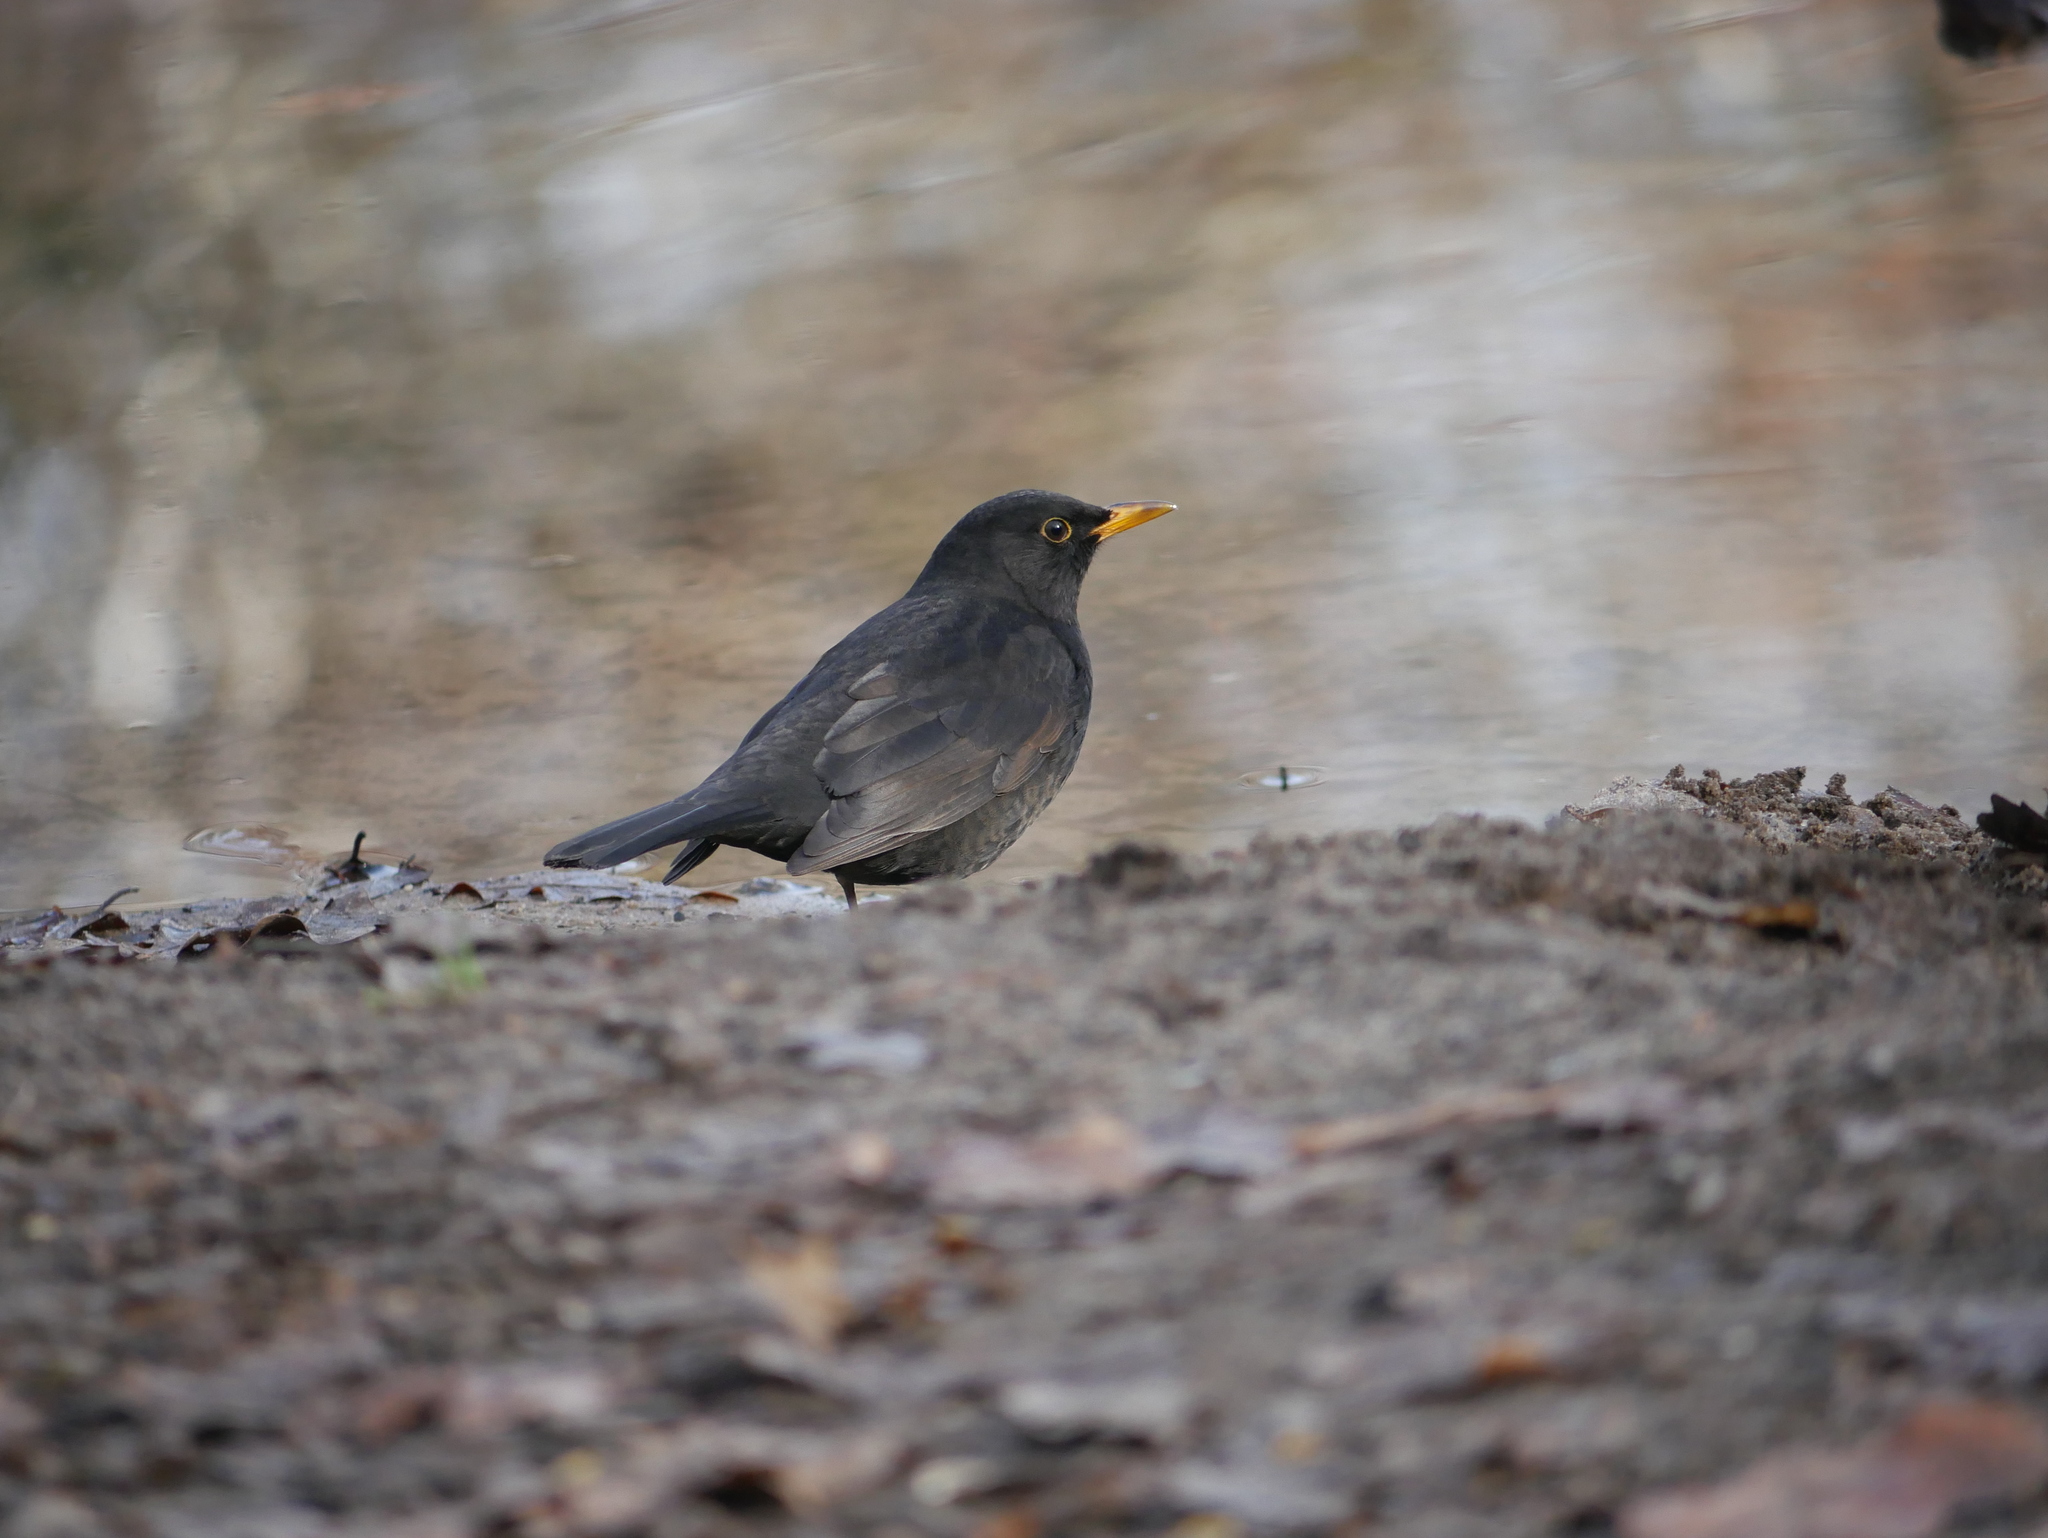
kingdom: Animalia
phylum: Chordata
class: Aves
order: Passeriformes
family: Turdidae
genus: Turdus
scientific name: Turdus merula
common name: Common blackbird
